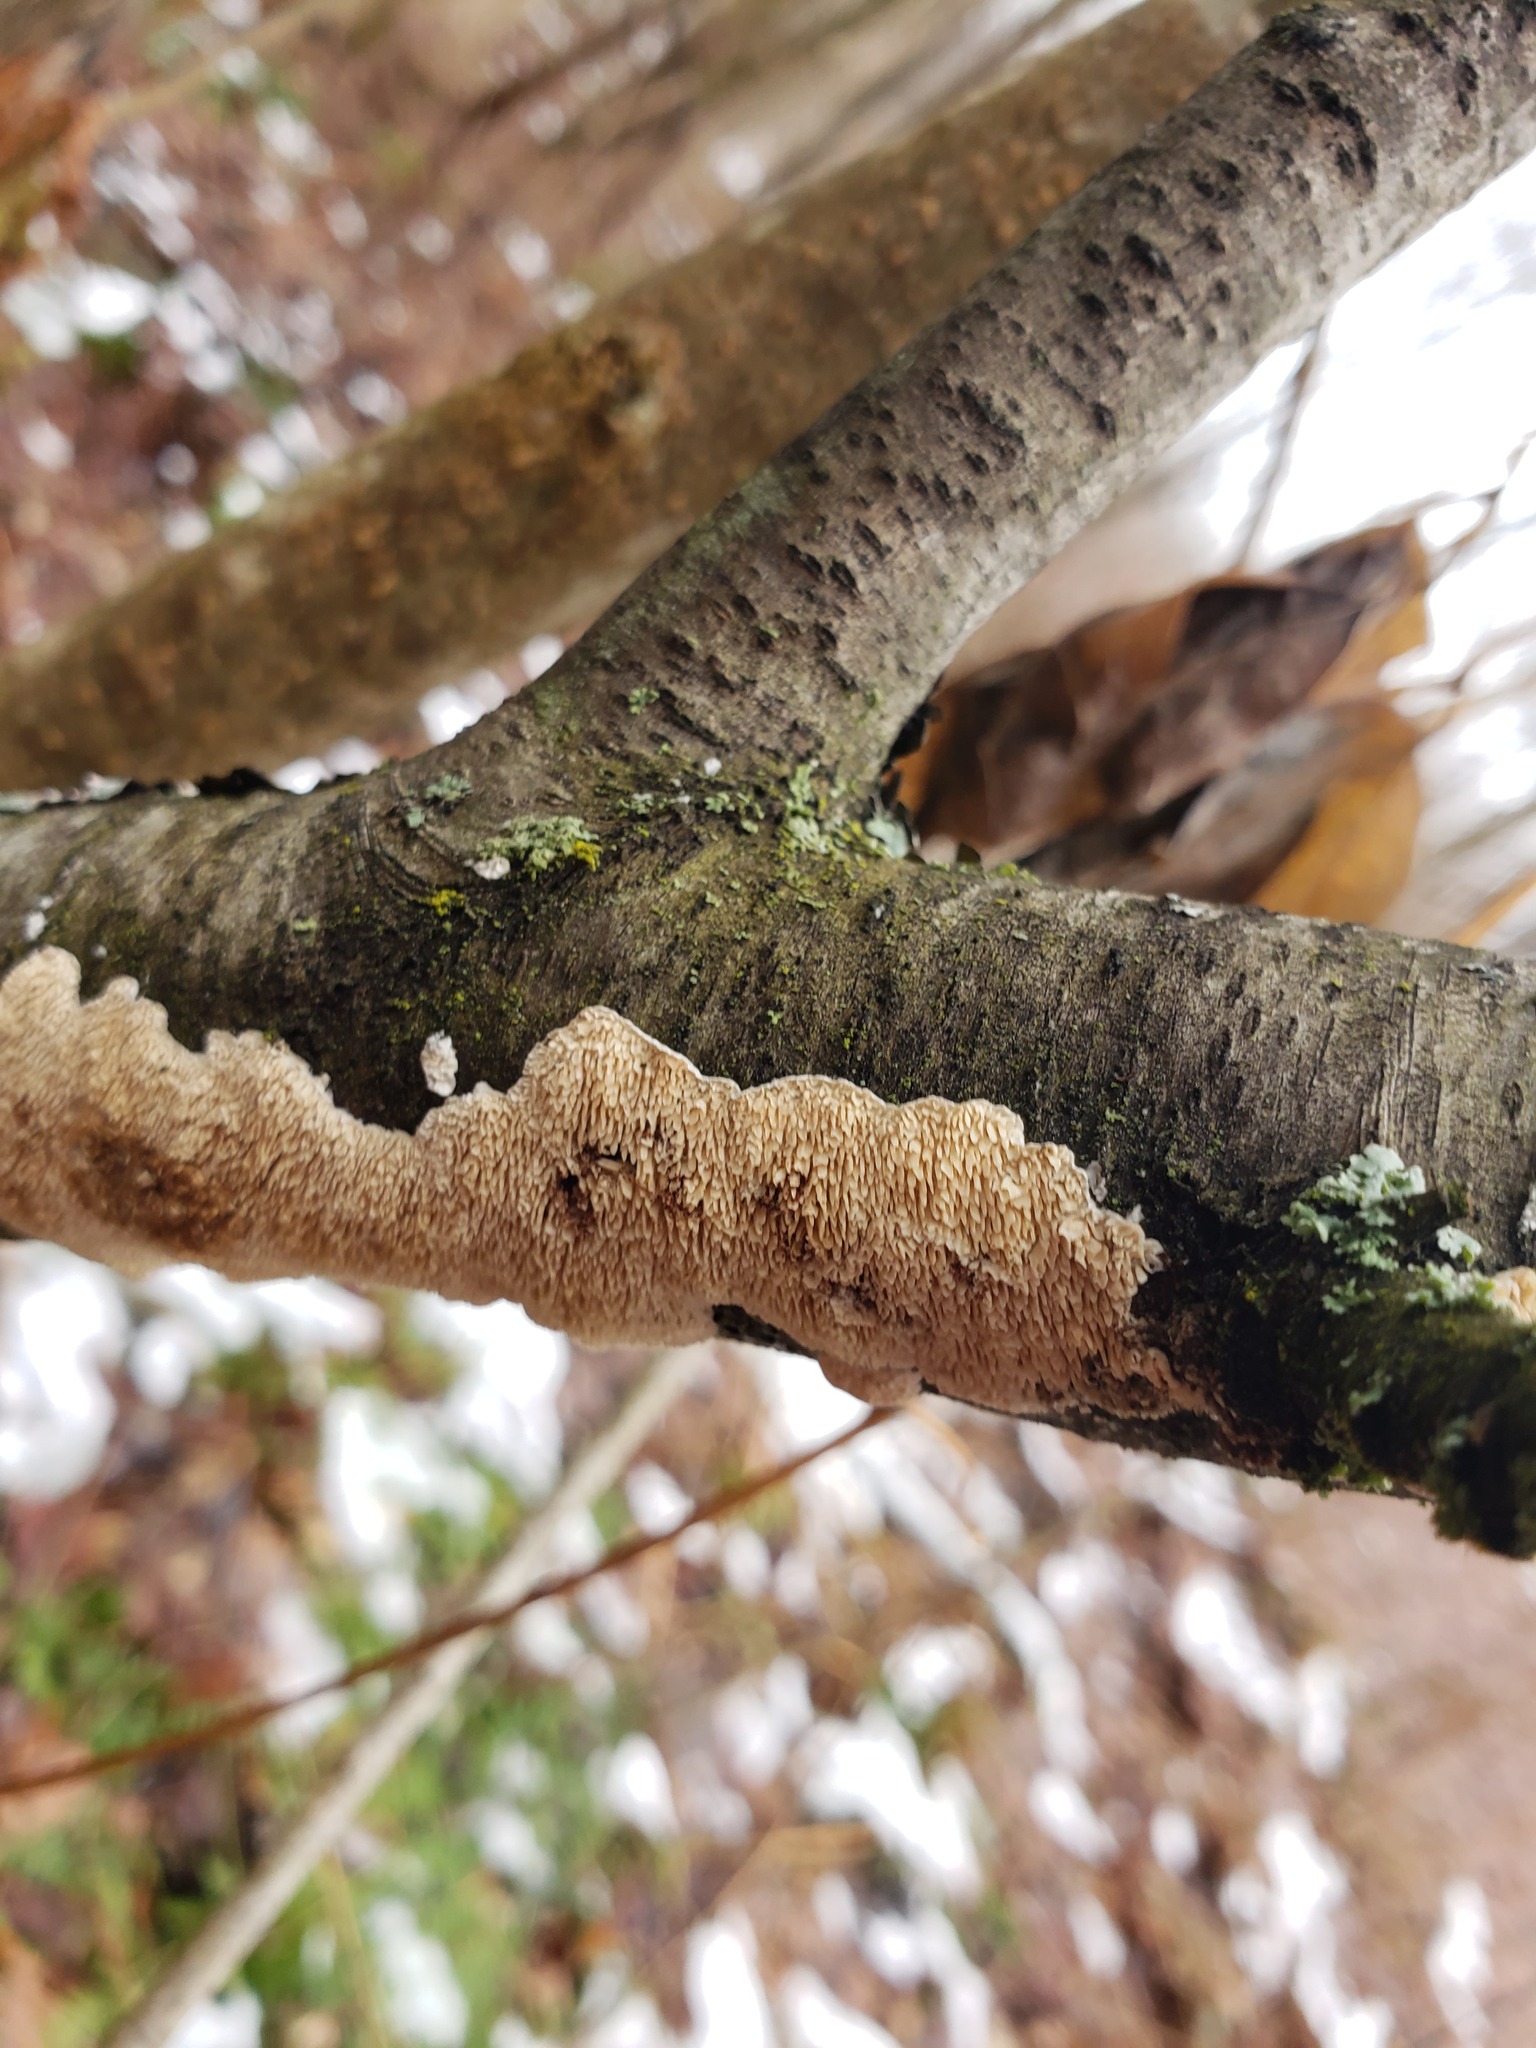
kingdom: Fungi
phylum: Basidiomycota
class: Agaricomycetes
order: Polyporales
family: Irpicaceae
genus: Irpex
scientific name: Irpex lacteus
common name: Milk-white toothed polypore
